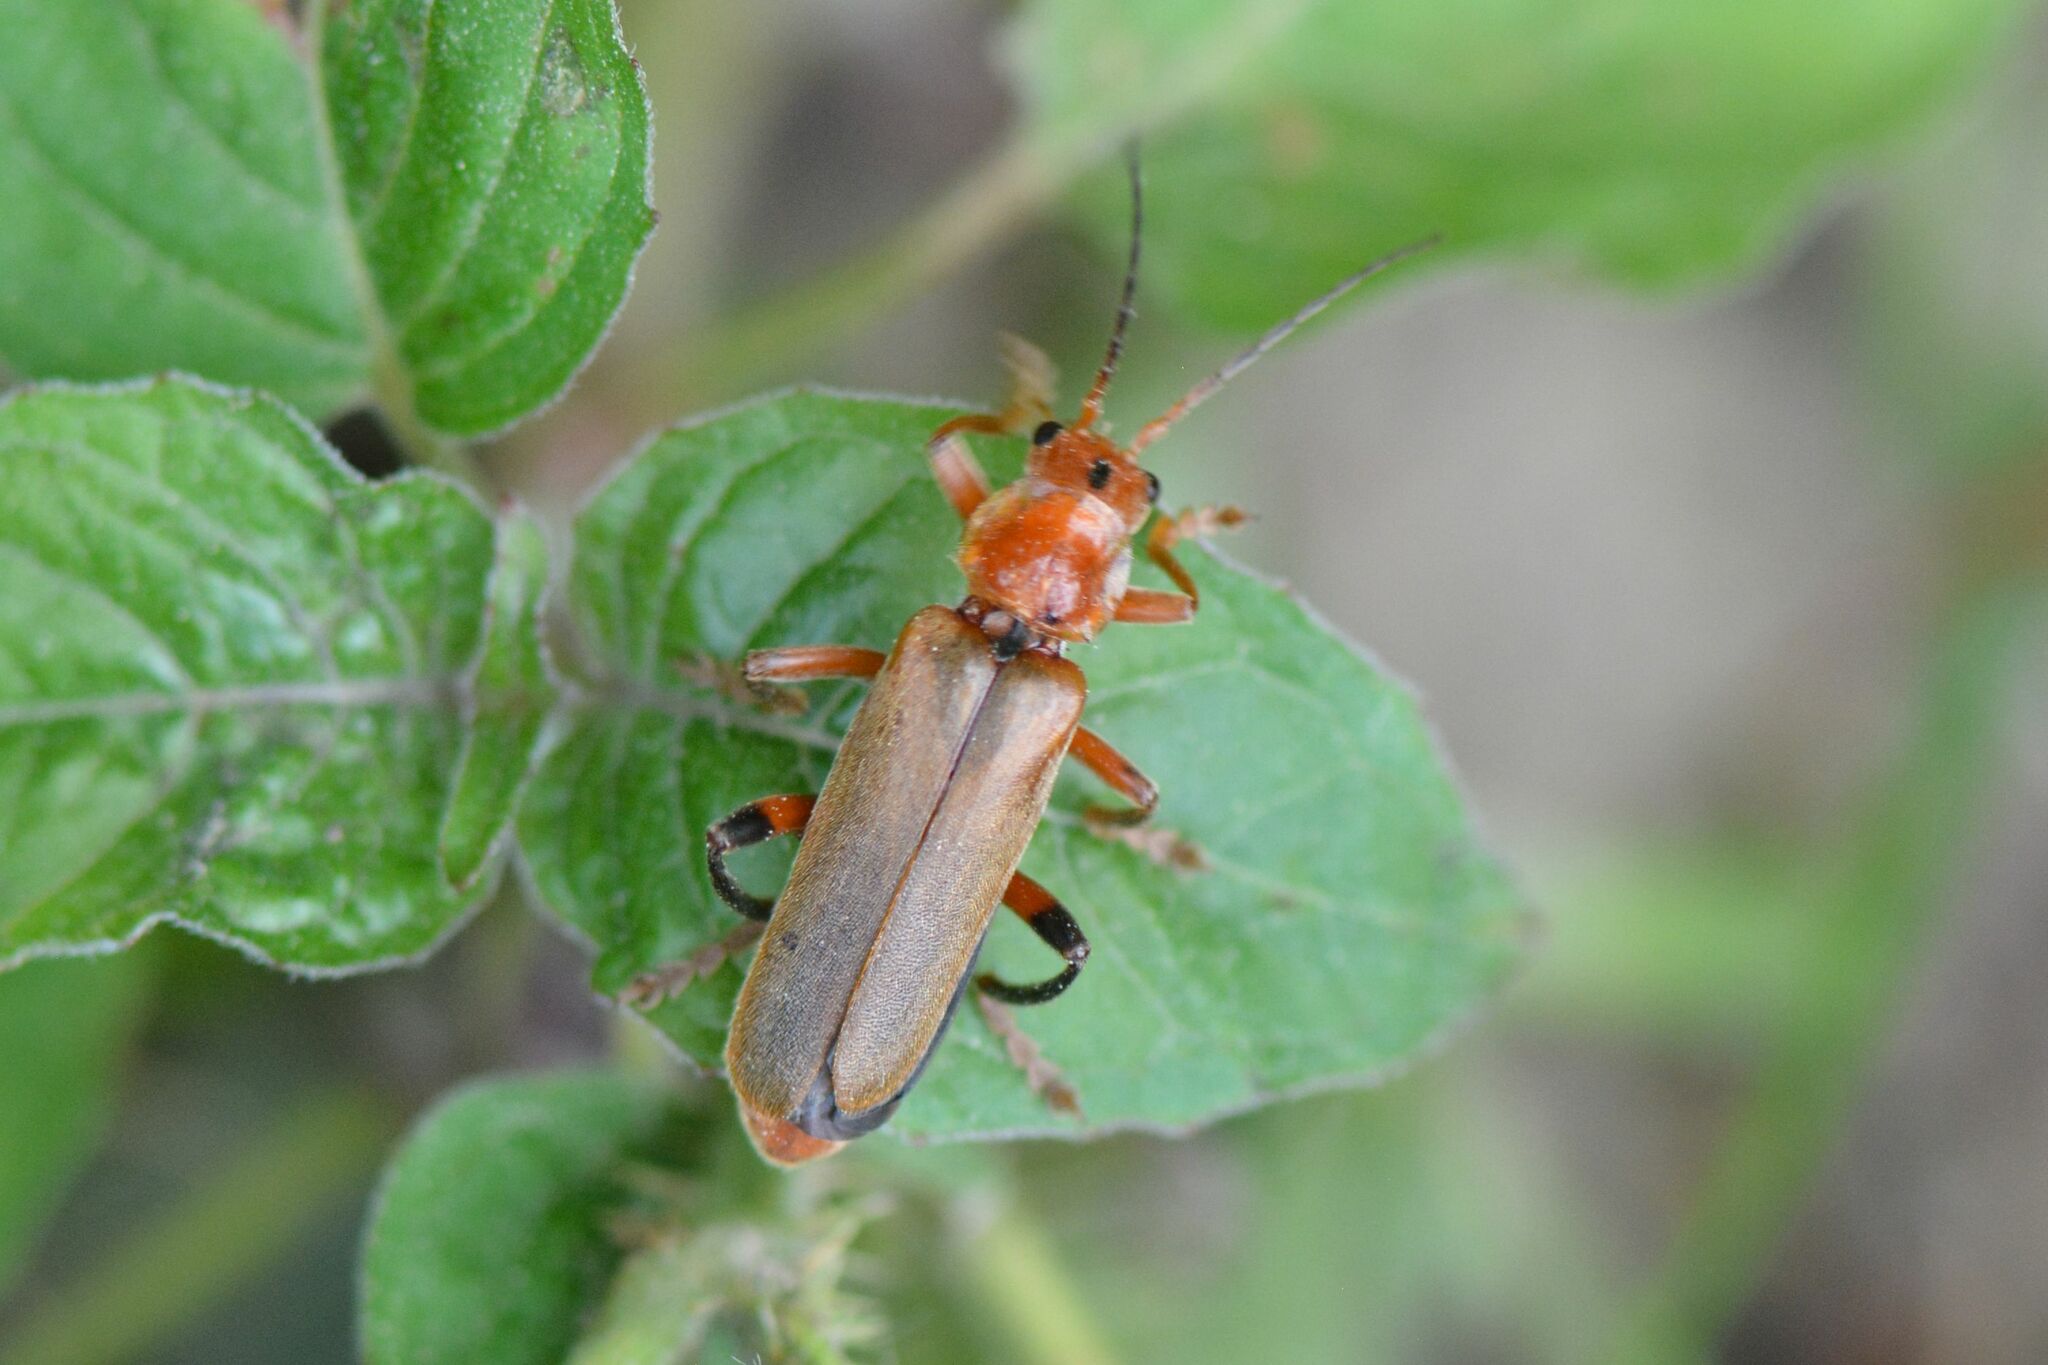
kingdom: Animalia
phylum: Arthropoda
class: Insecta
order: Coleoptera
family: Cantharidae
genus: Cantharis
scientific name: Cantharis livida
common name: Livid soldier beetle
